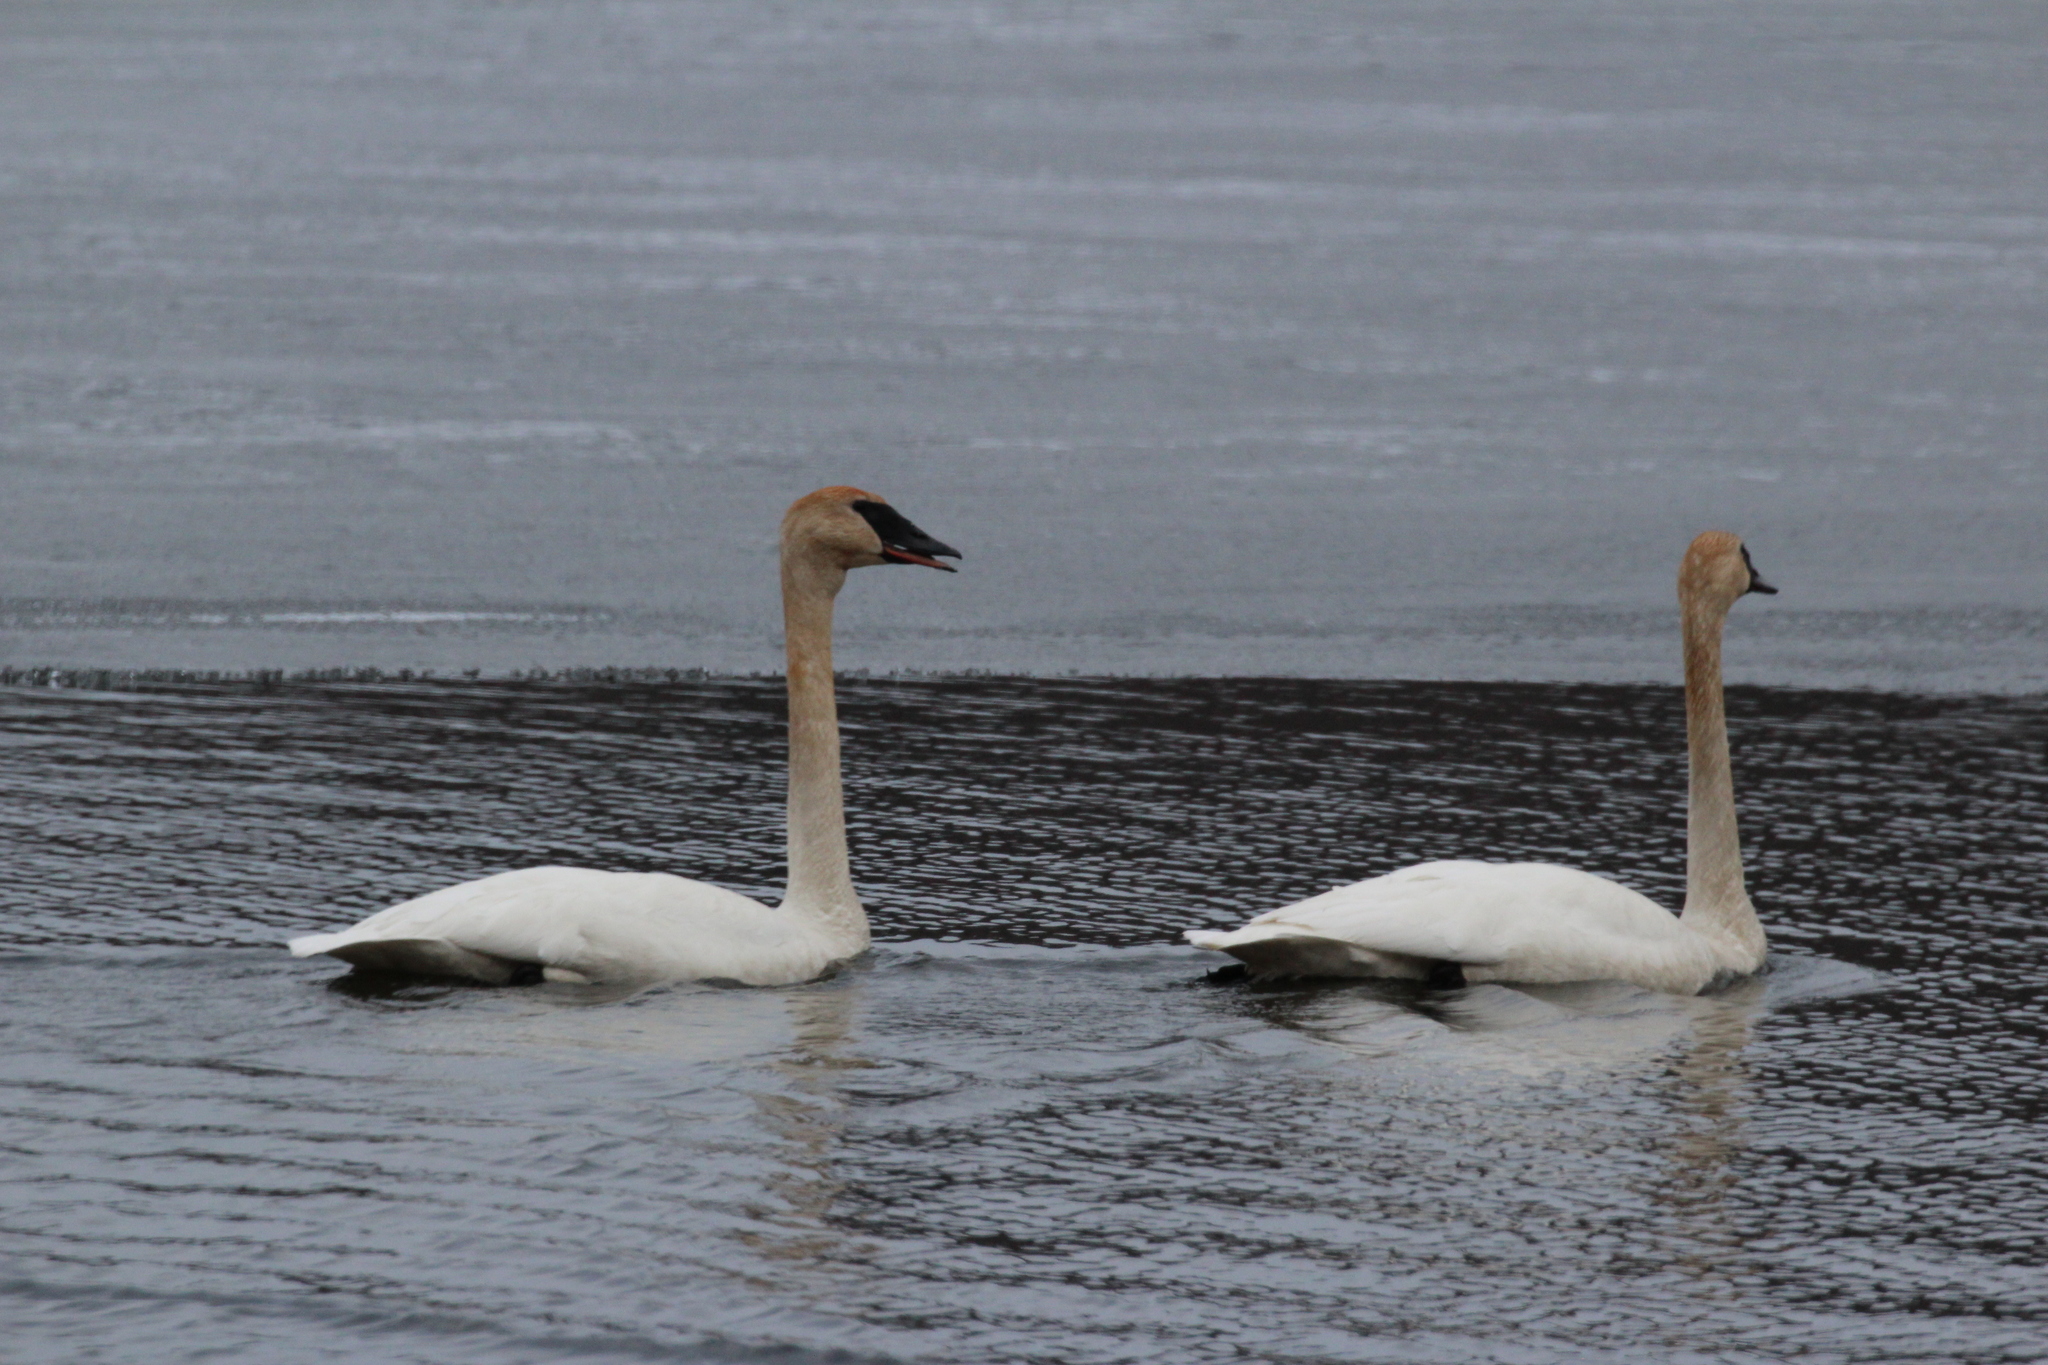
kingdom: Animalia
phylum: Chordata
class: Aves
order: Anseriformes
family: Anatidae
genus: Cygnus
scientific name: Cygnus buccinator
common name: Trumpeter swan
